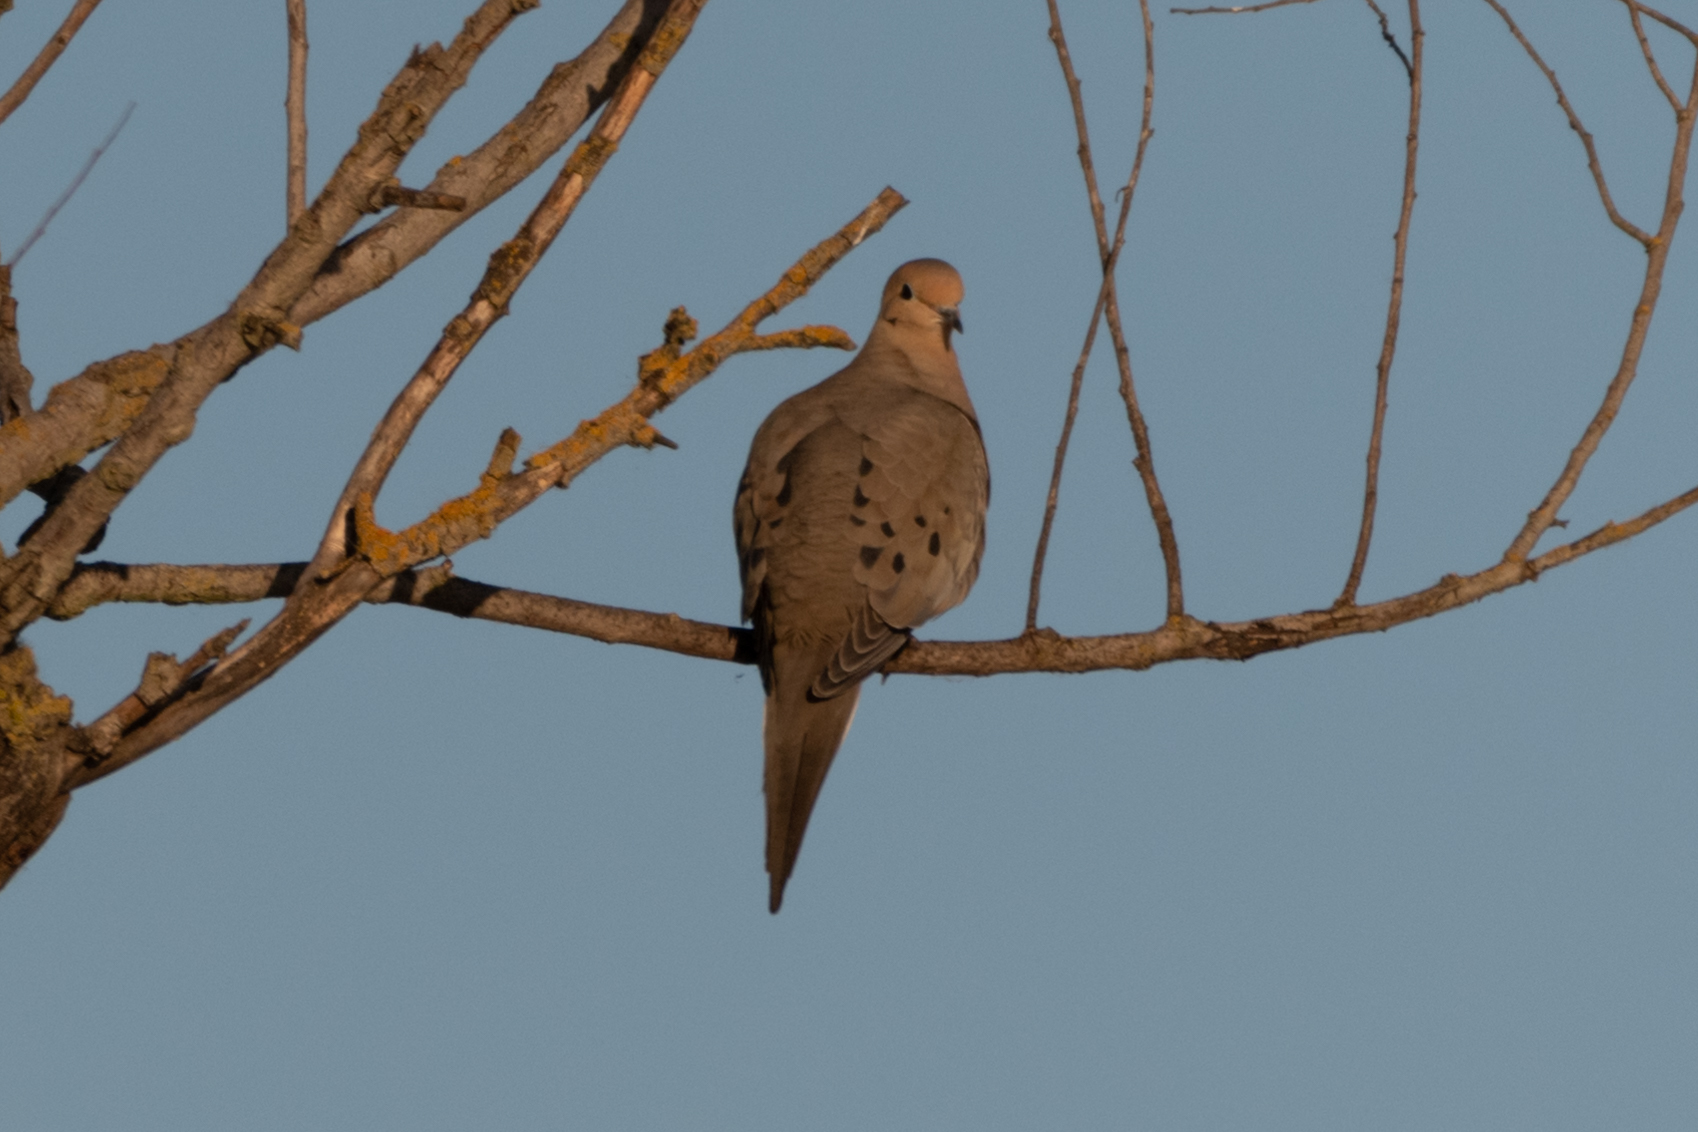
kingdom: Animalia
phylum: Chordata
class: Aves
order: Columbiformes
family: Columbidae
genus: Zenaida
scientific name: Zenaida macroura
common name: Mourning dove
